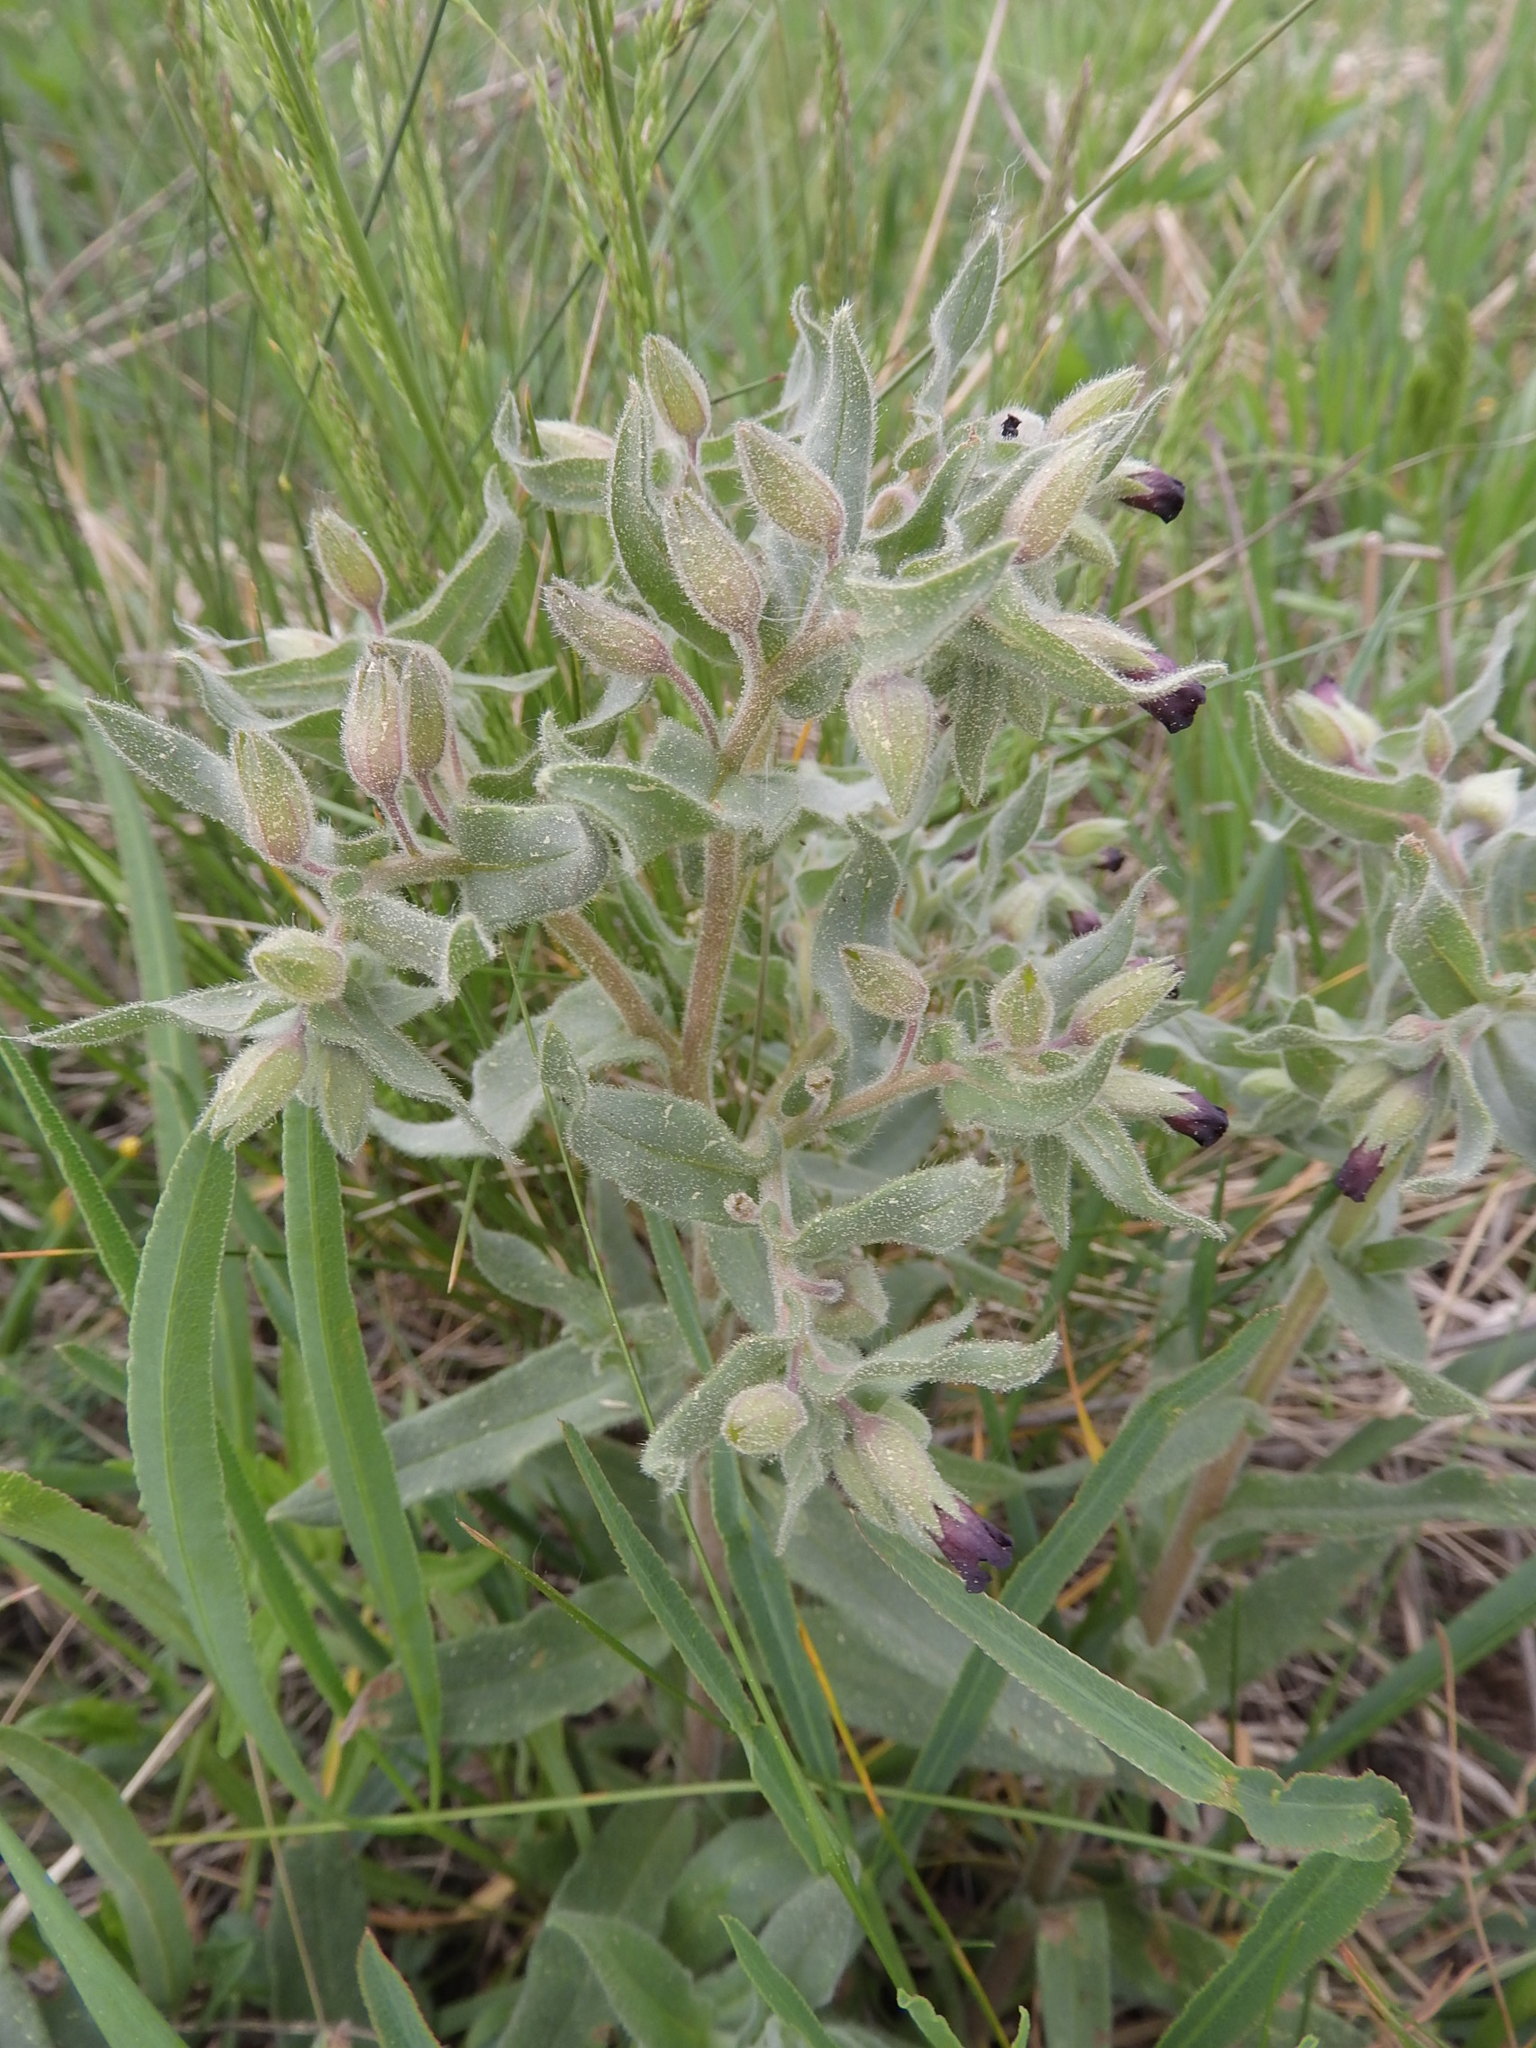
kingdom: Plantae
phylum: Tracheophyta
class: Magnoliopsida
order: Boraginales
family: Boraginaceae
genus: Nonea
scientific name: Nonea pulla
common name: Brown nonea
